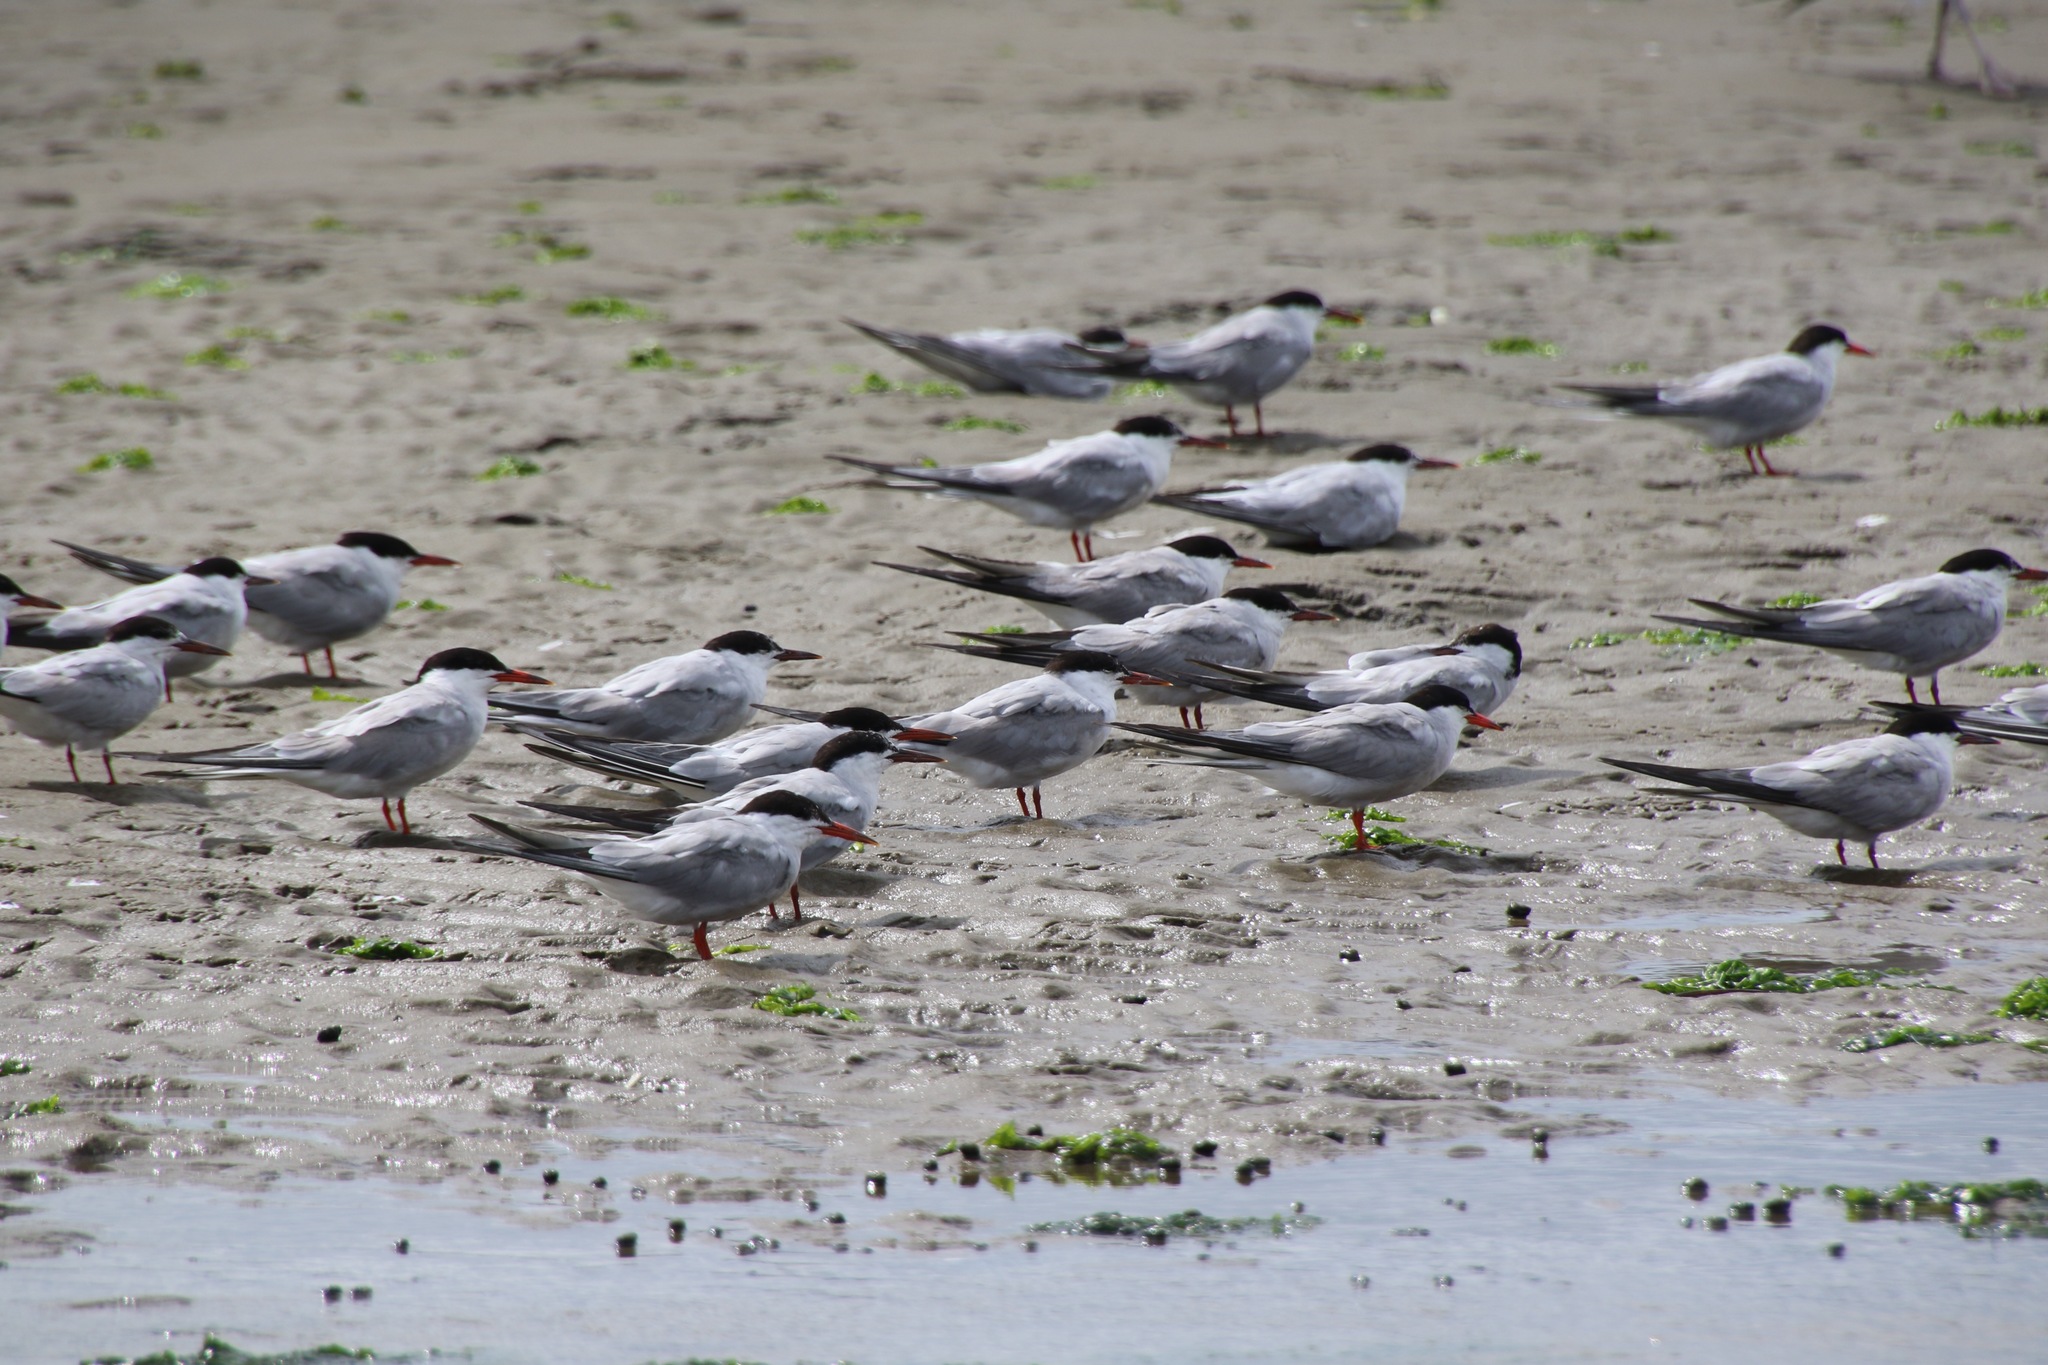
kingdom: Animalia
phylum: Chordata
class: Aves
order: Charadriiformes
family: Laridae
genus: Sterna
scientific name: Sterna hirundo
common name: Common tern
